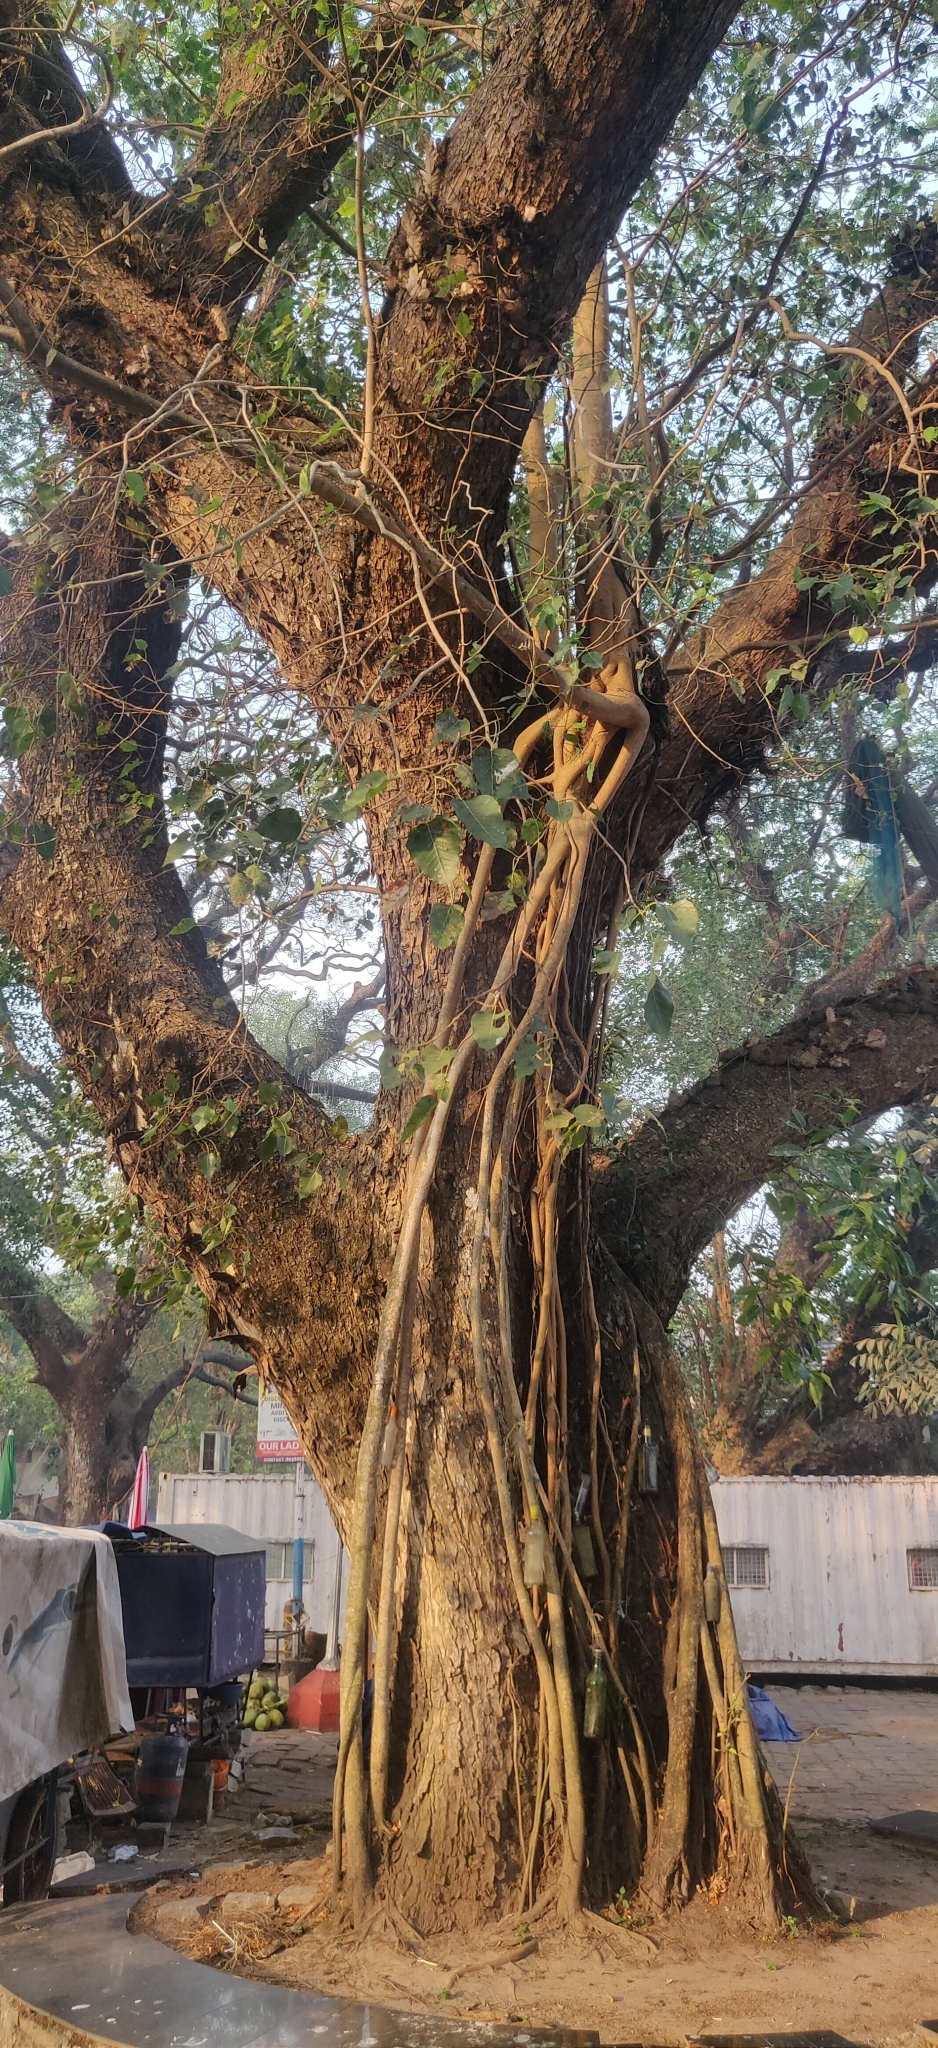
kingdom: Plantae
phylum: Tracheophyta
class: Magnoliopsida
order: Rosales
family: Moraceae
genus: Ficus
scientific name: Ficus religiosa
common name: Bodhi tree
